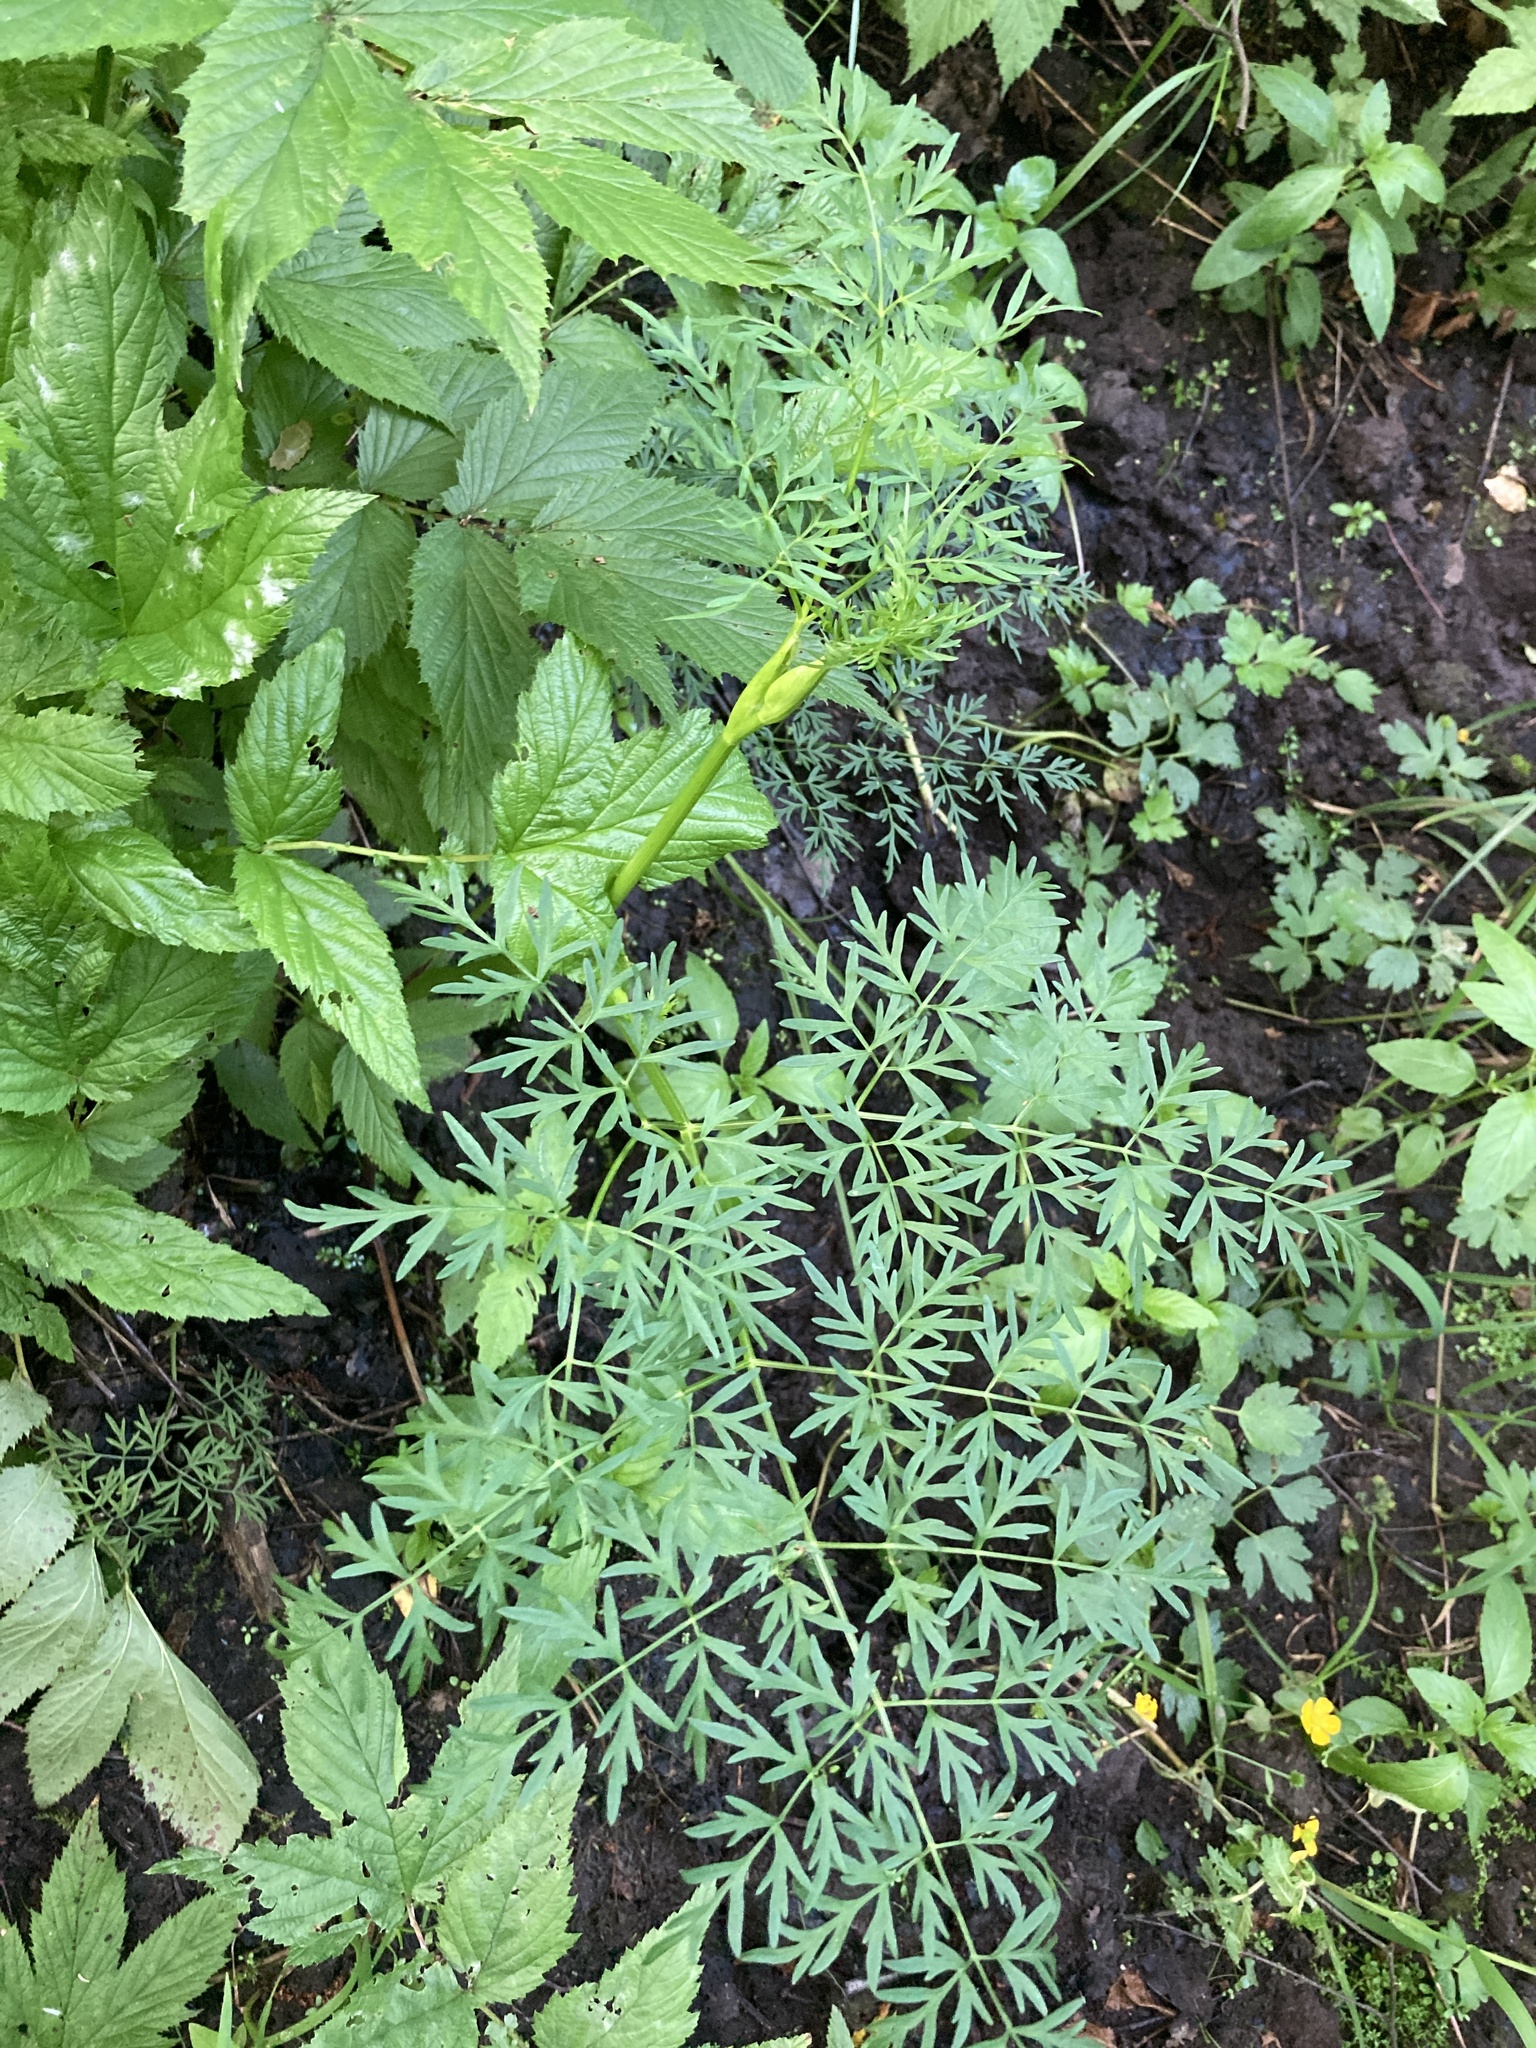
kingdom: Plantae
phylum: Tracheophyta
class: Magnoliopsida
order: Apiales
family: Apiaceae
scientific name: Apiaceae
